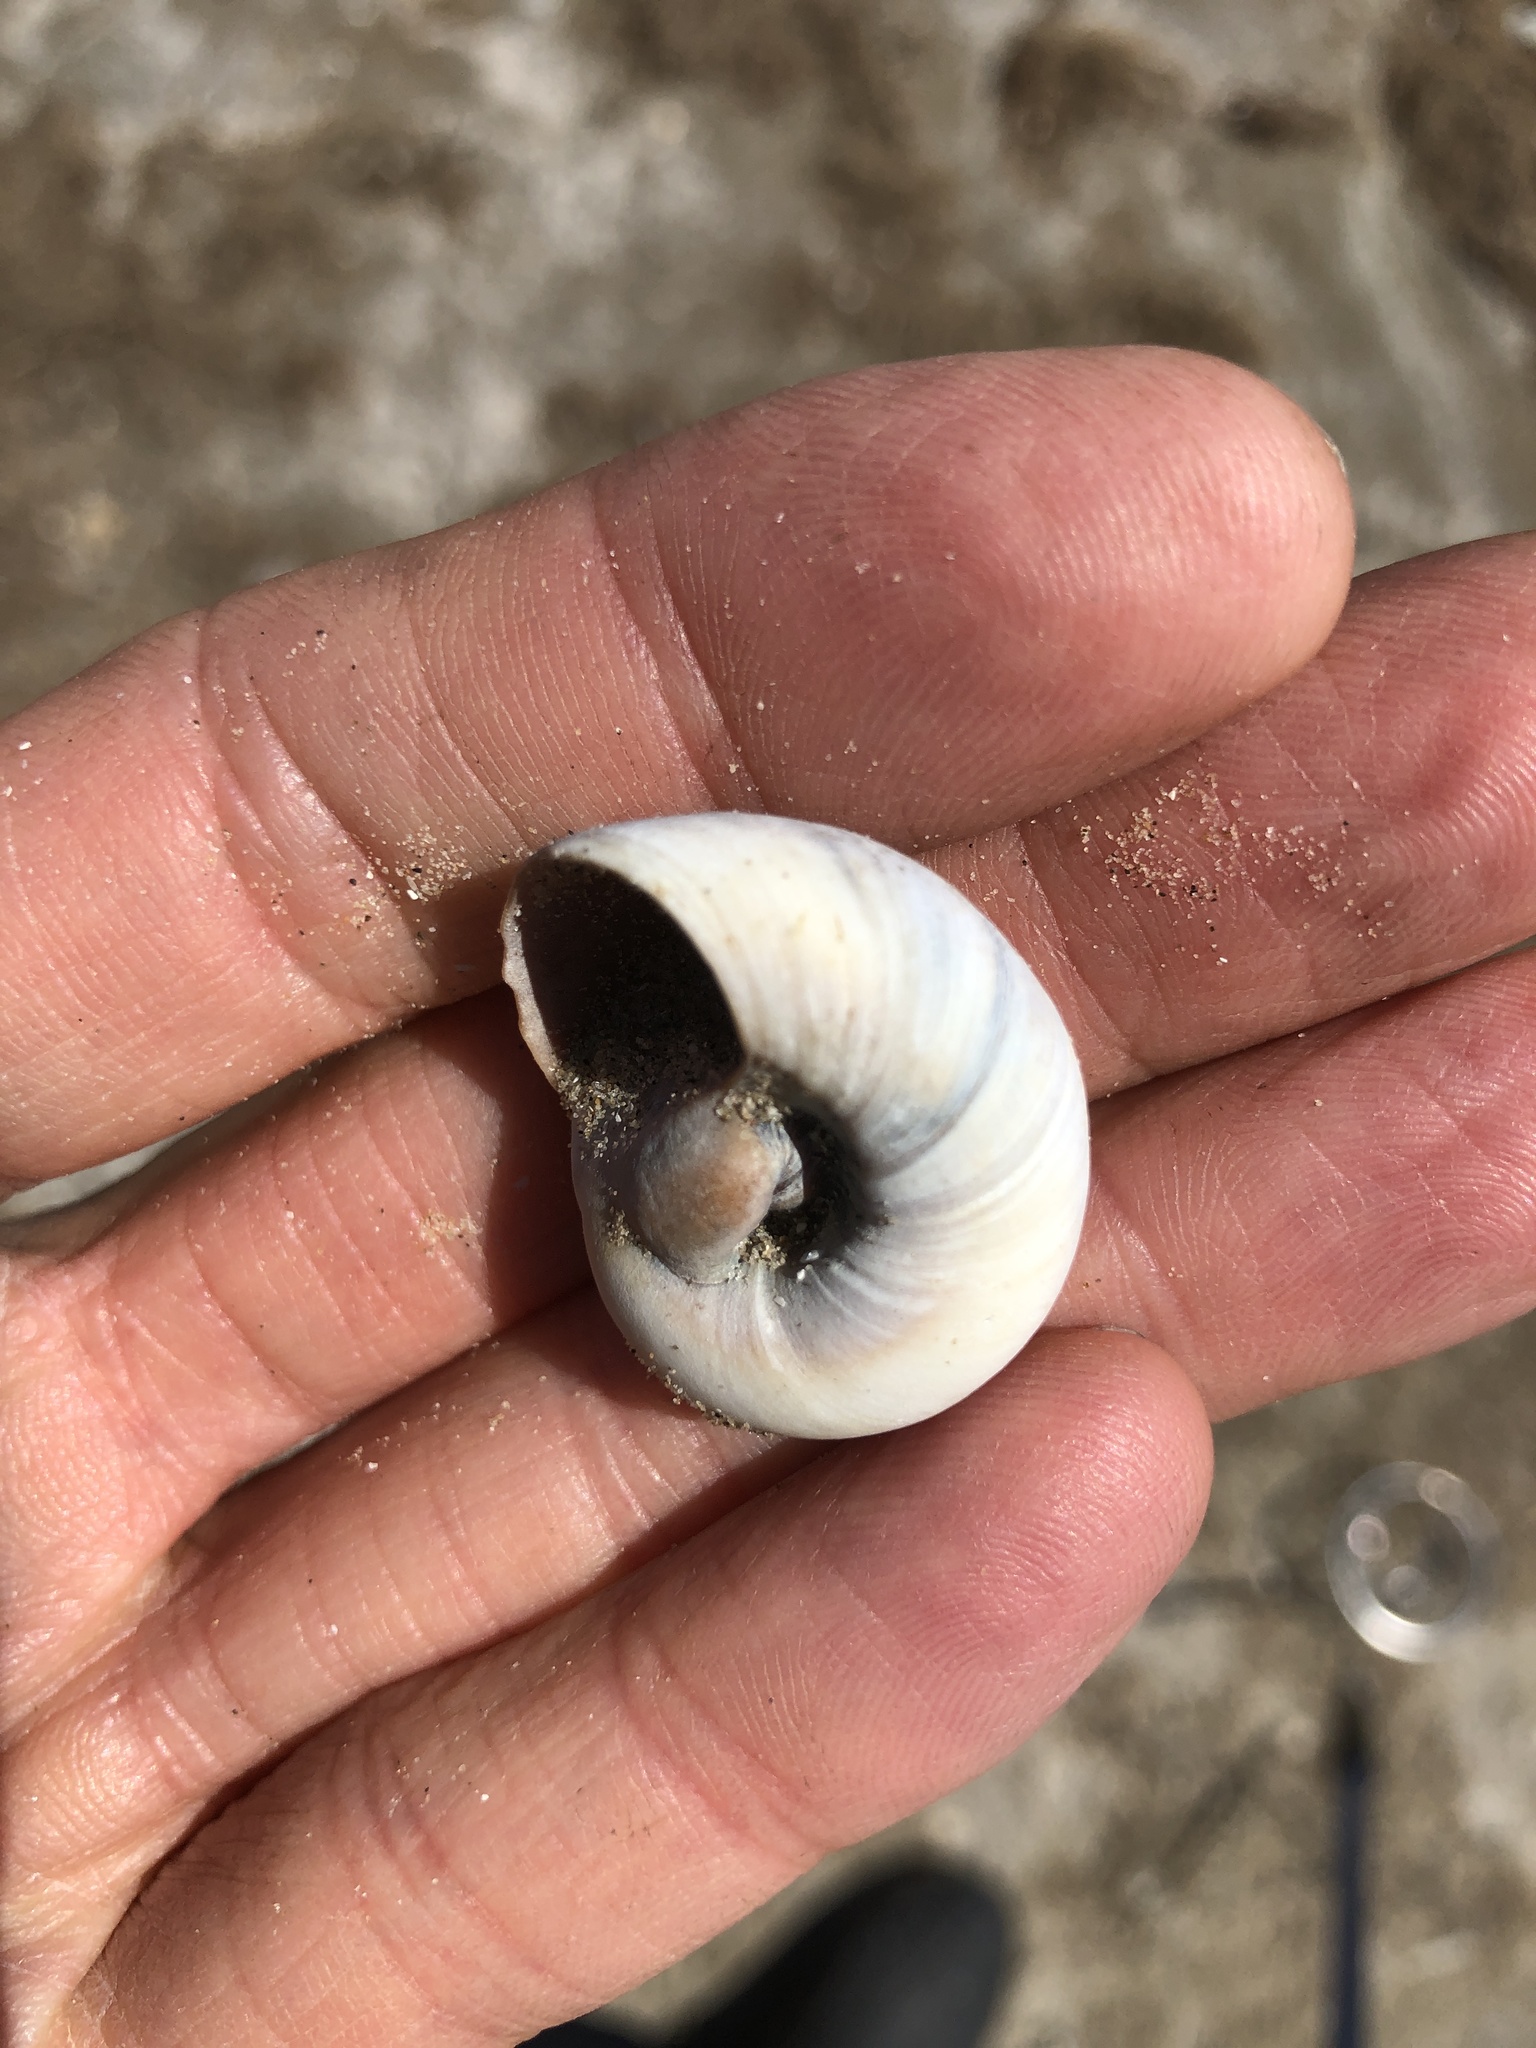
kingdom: Animalia
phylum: Mollusca
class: Gastropoda
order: Littorinimorpha
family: Naticidae
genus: Neverita
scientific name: Neverita delessertiana
